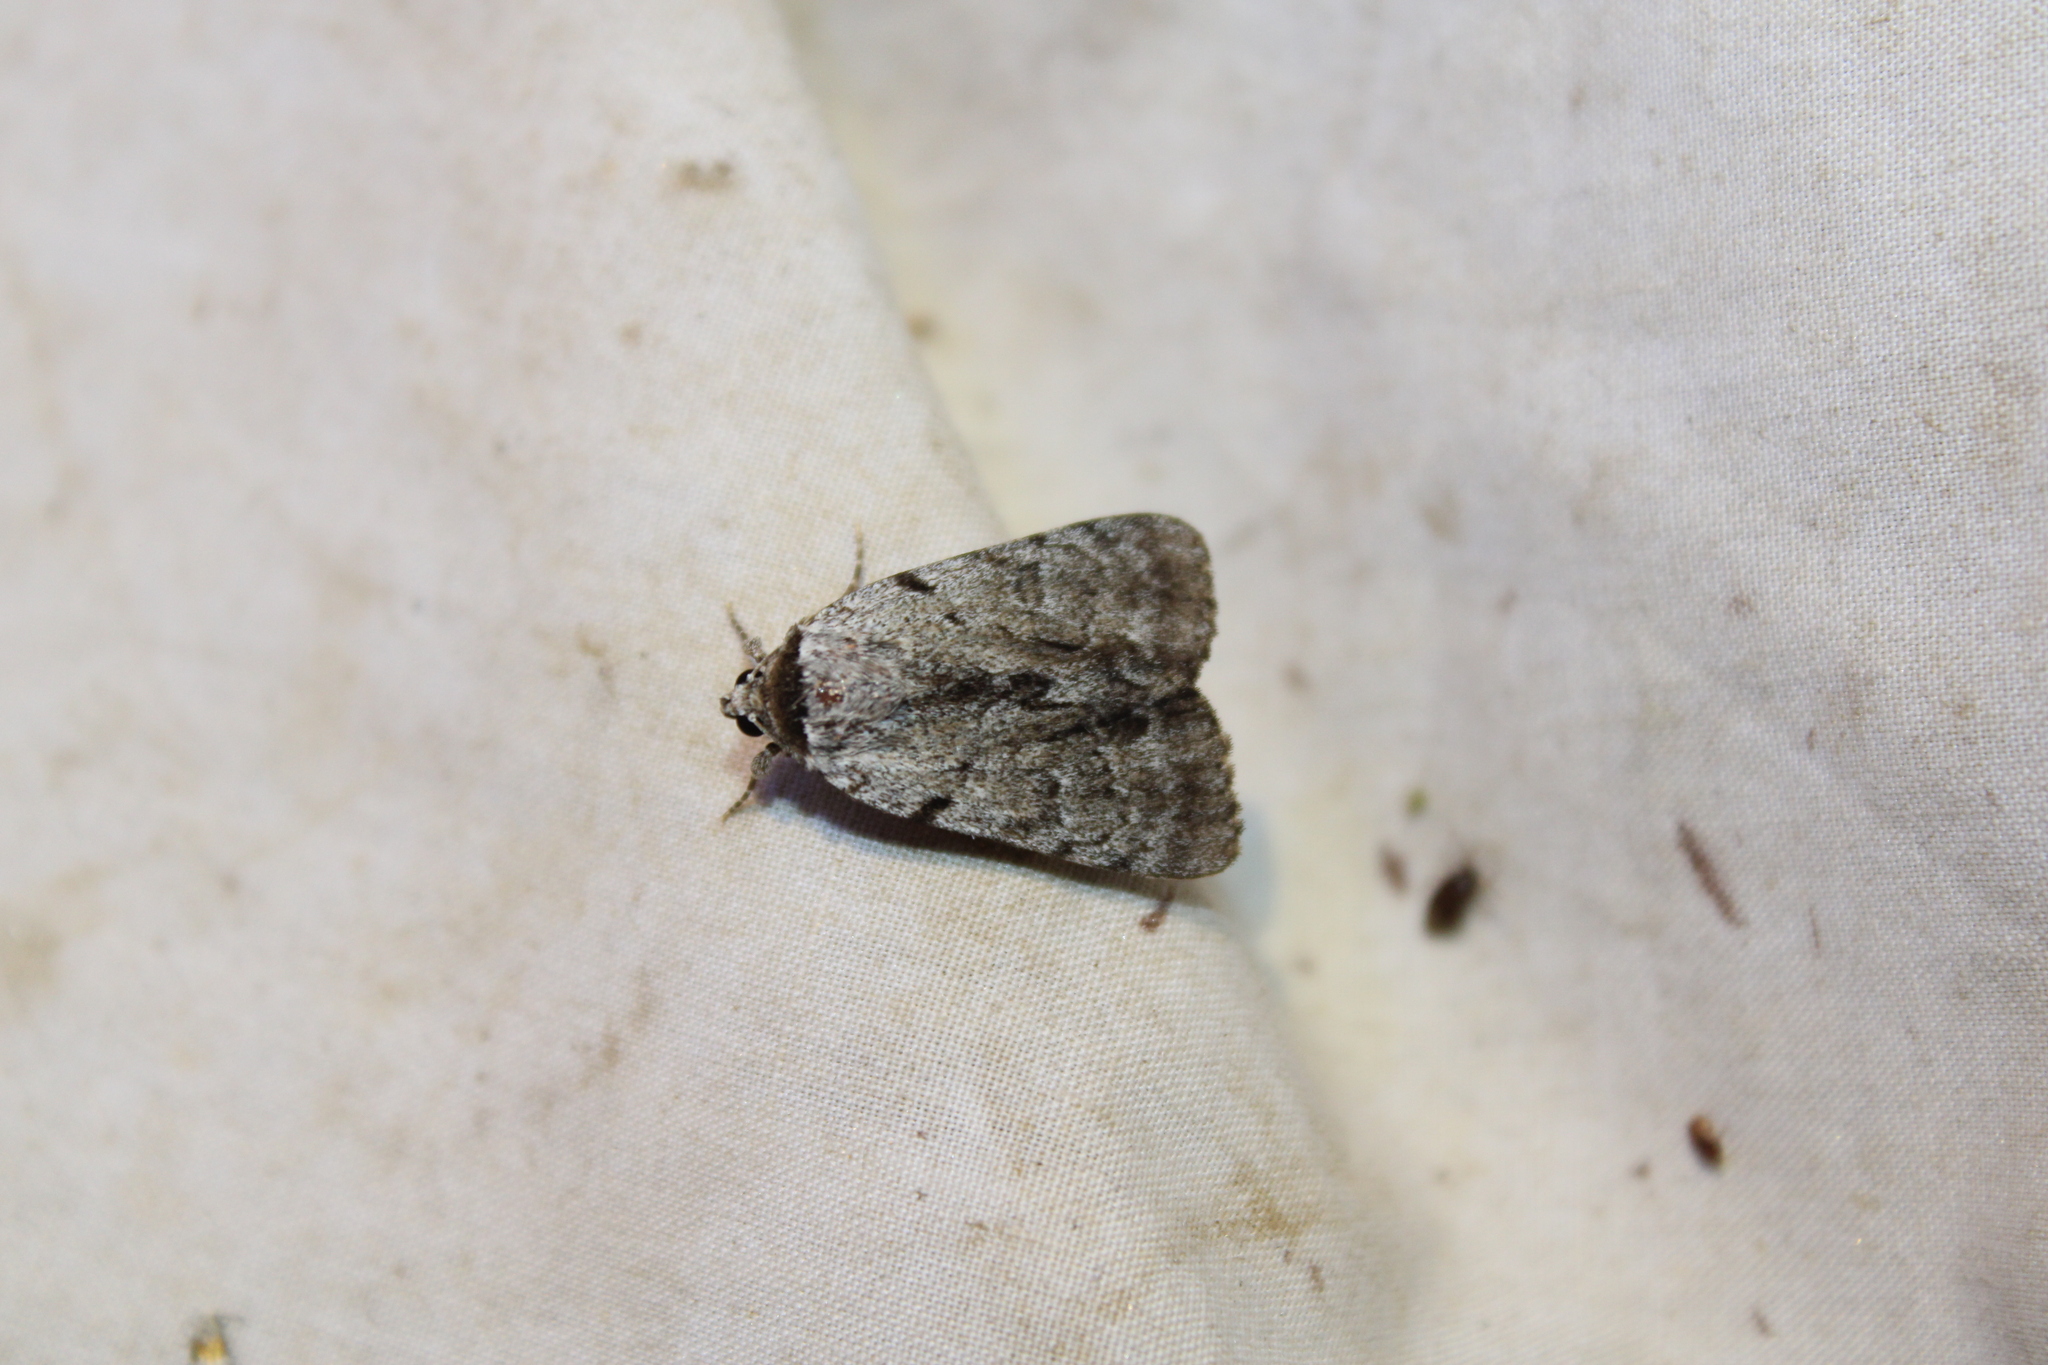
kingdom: Animalia
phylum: Arthropoda
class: Insecta
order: Lepidoptera
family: Erebidae
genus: Catocala
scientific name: Catocala sordida
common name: Sordid underwing
